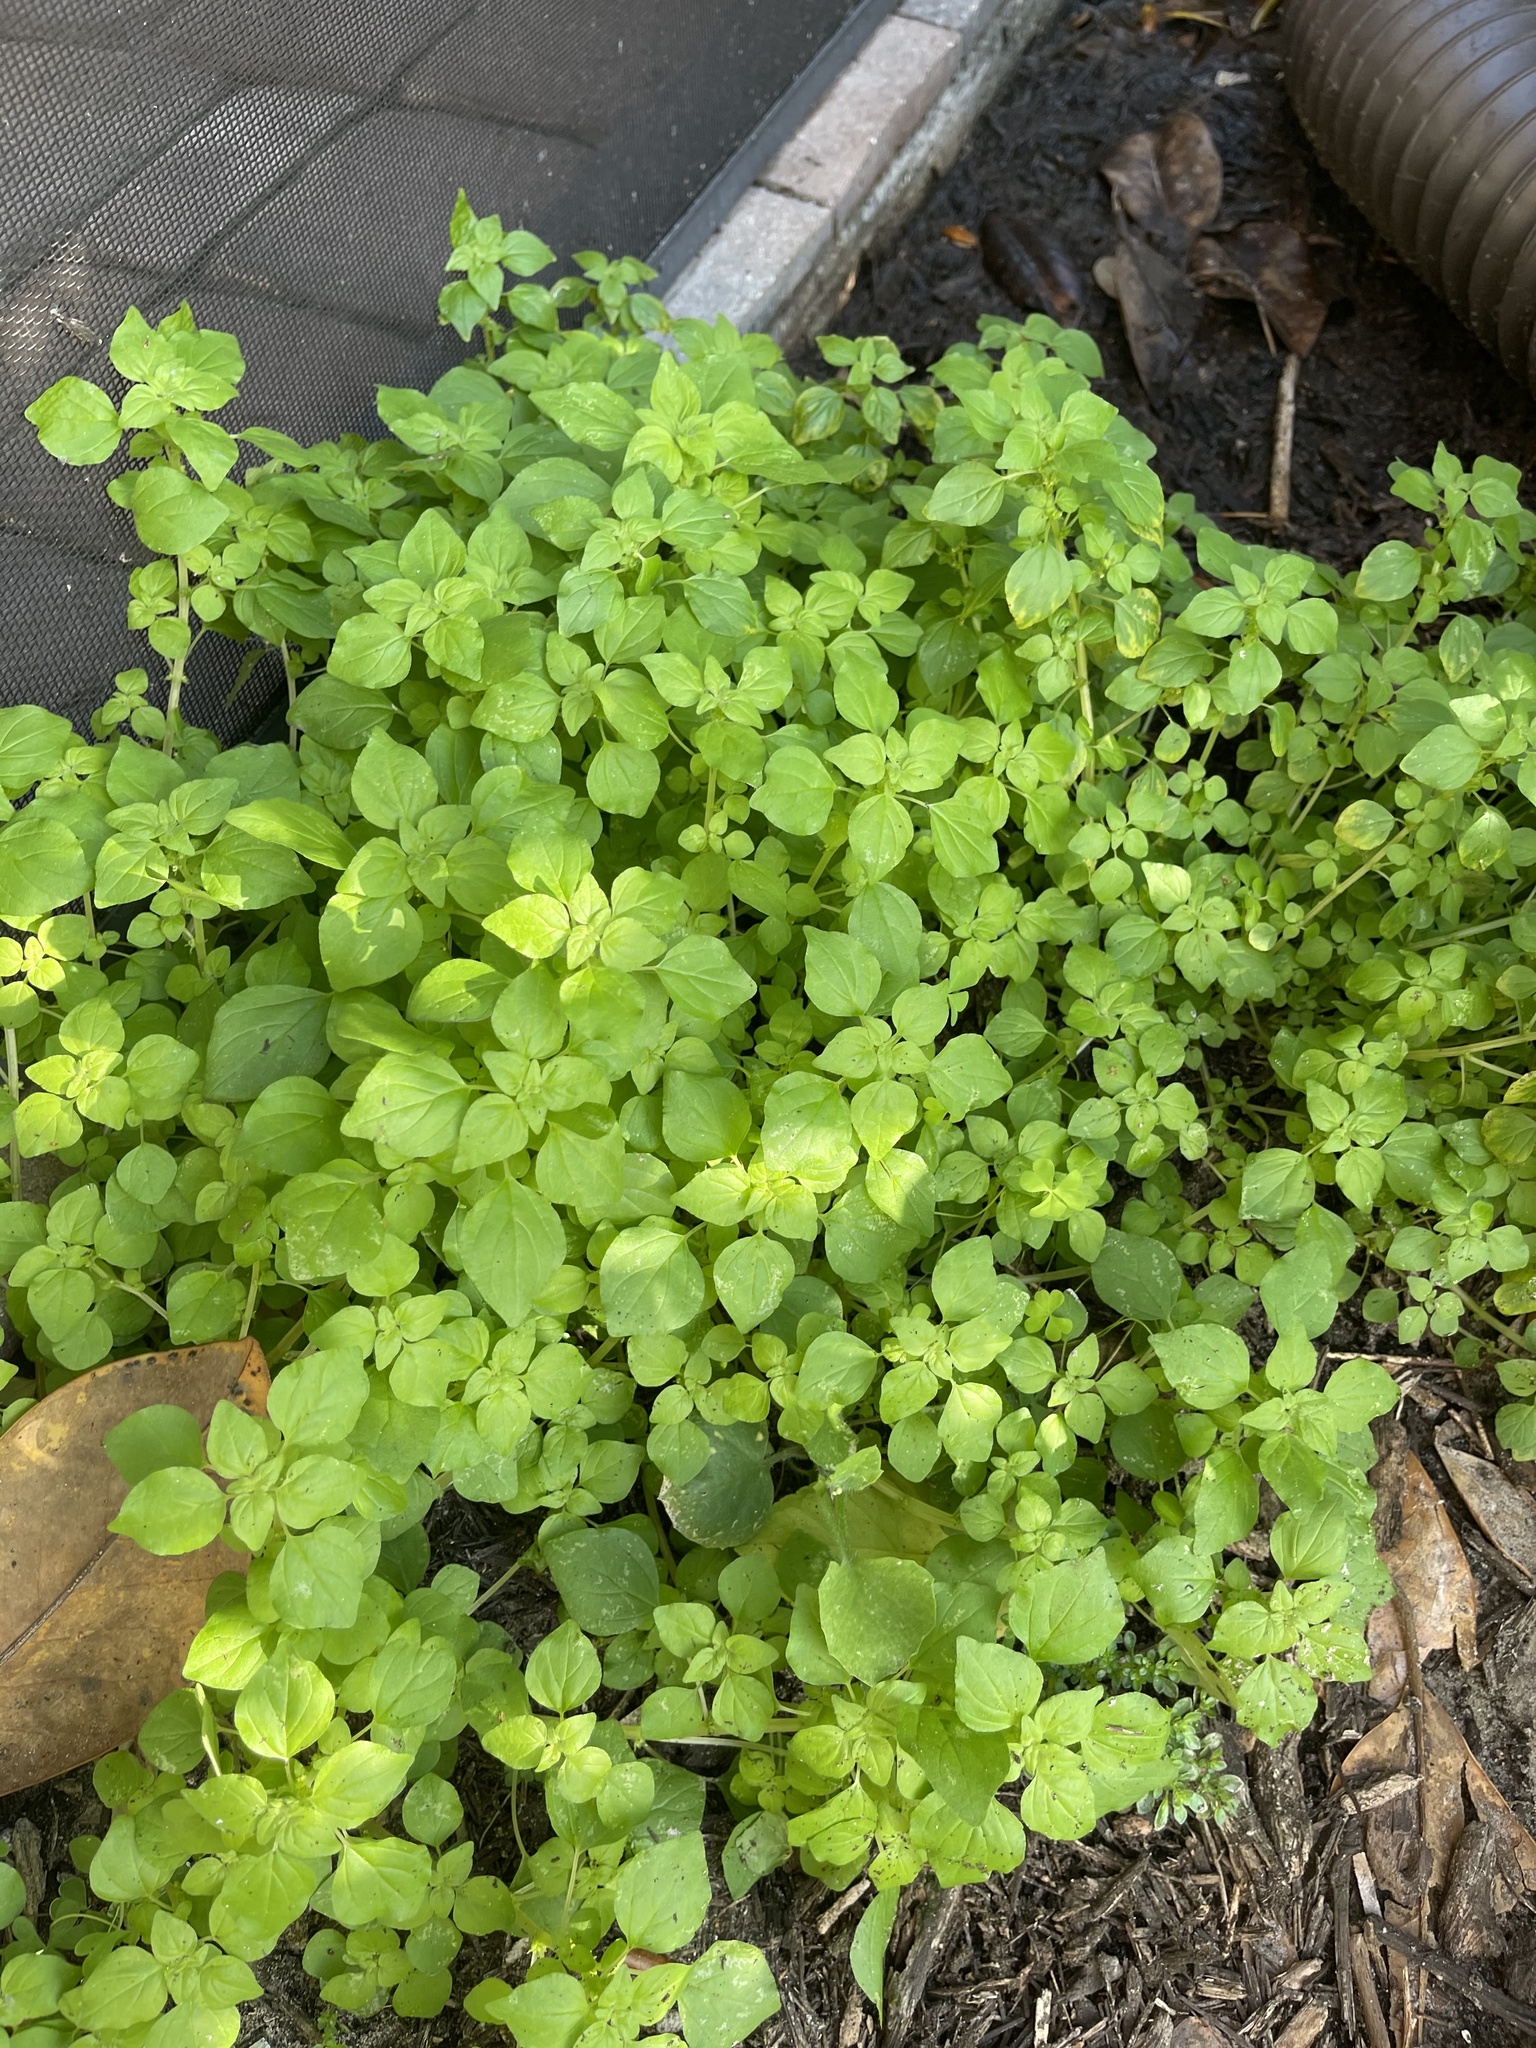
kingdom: Plantae
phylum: Tracheophyta
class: Magnoliopsida
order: Rosales
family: Urticaceae
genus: Parietaria
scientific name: Parietaria floridana
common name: Florida pellitory
